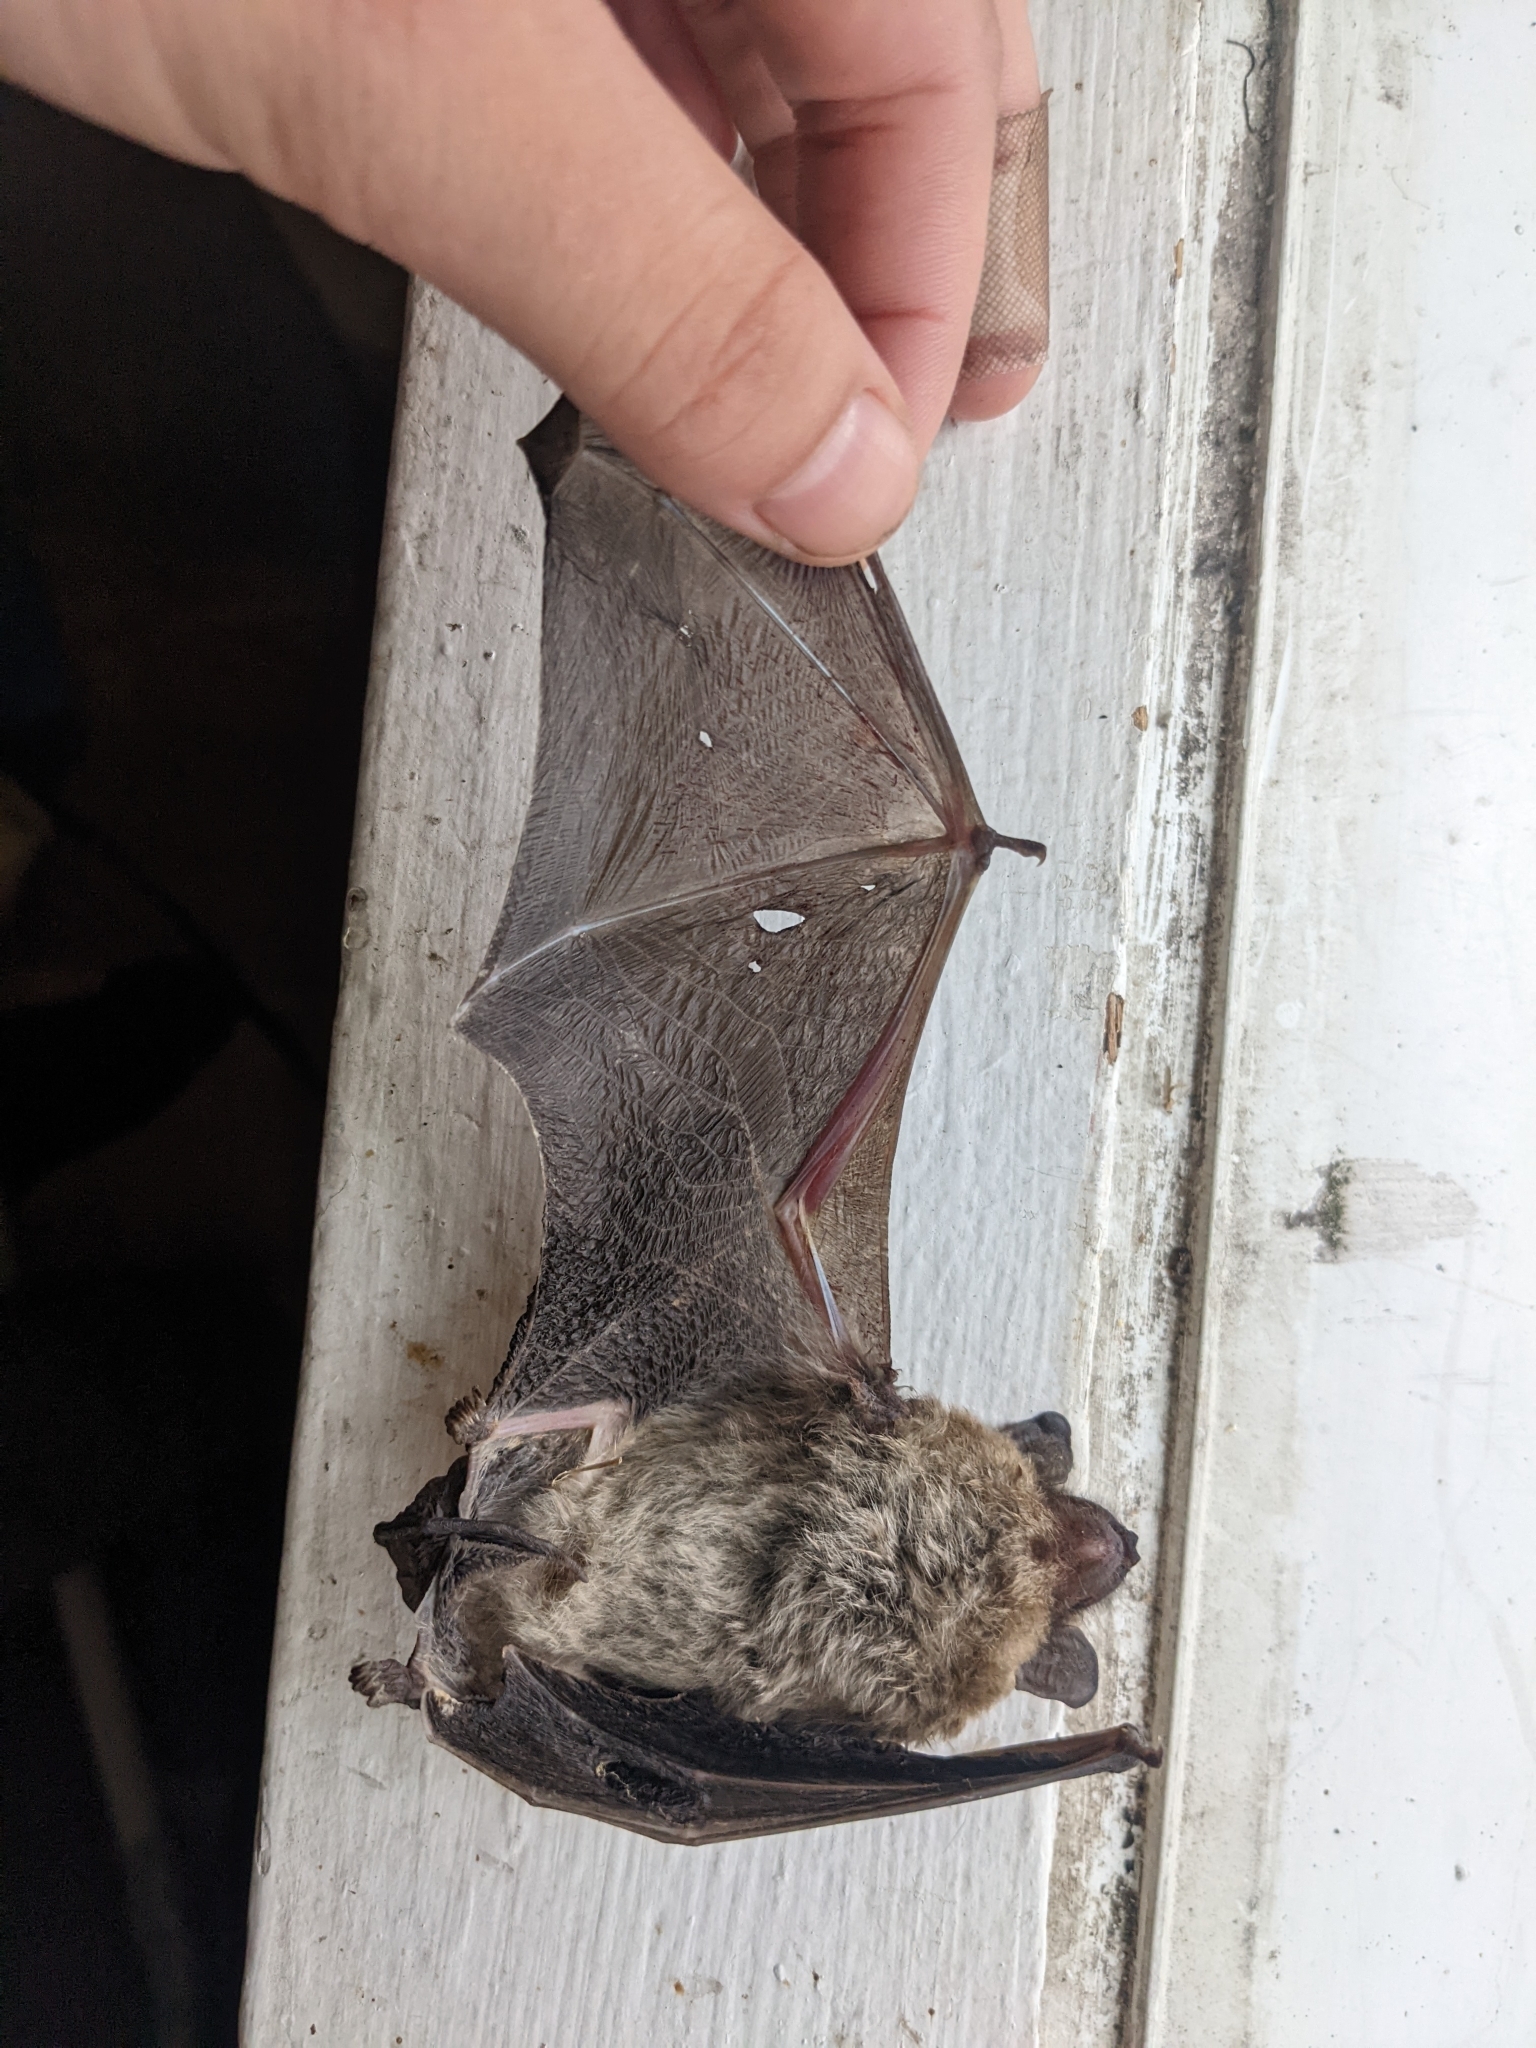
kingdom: Animalia
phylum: Chordata
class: Mammalia
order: Chiroptera
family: Vespertilionidae
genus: Eptesicus
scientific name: Eptesicus fuscus
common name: Big brown bat
